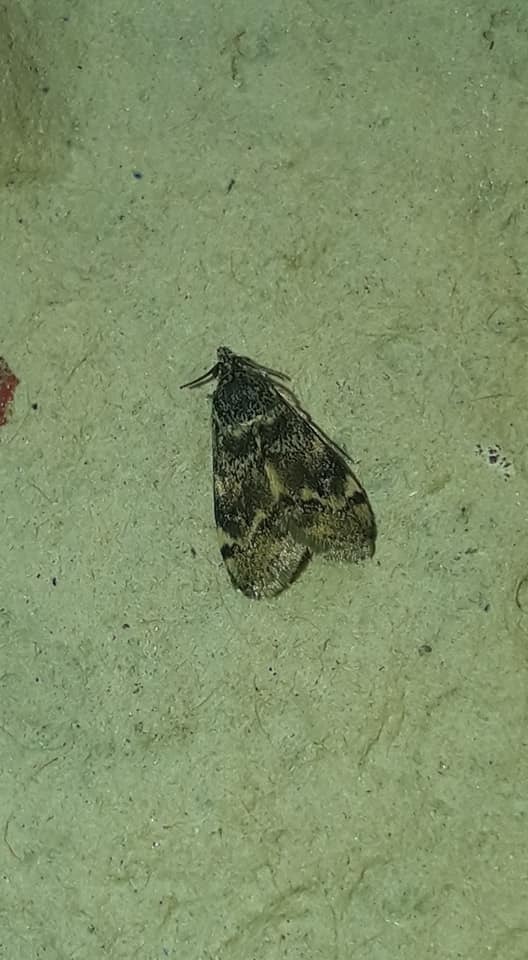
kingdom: Animalia
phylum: Arthropoda
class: Insecta
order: Lepidoptera
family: Crambidae
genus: Noctuelia
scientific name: Noctuelia Aporodes floralis
